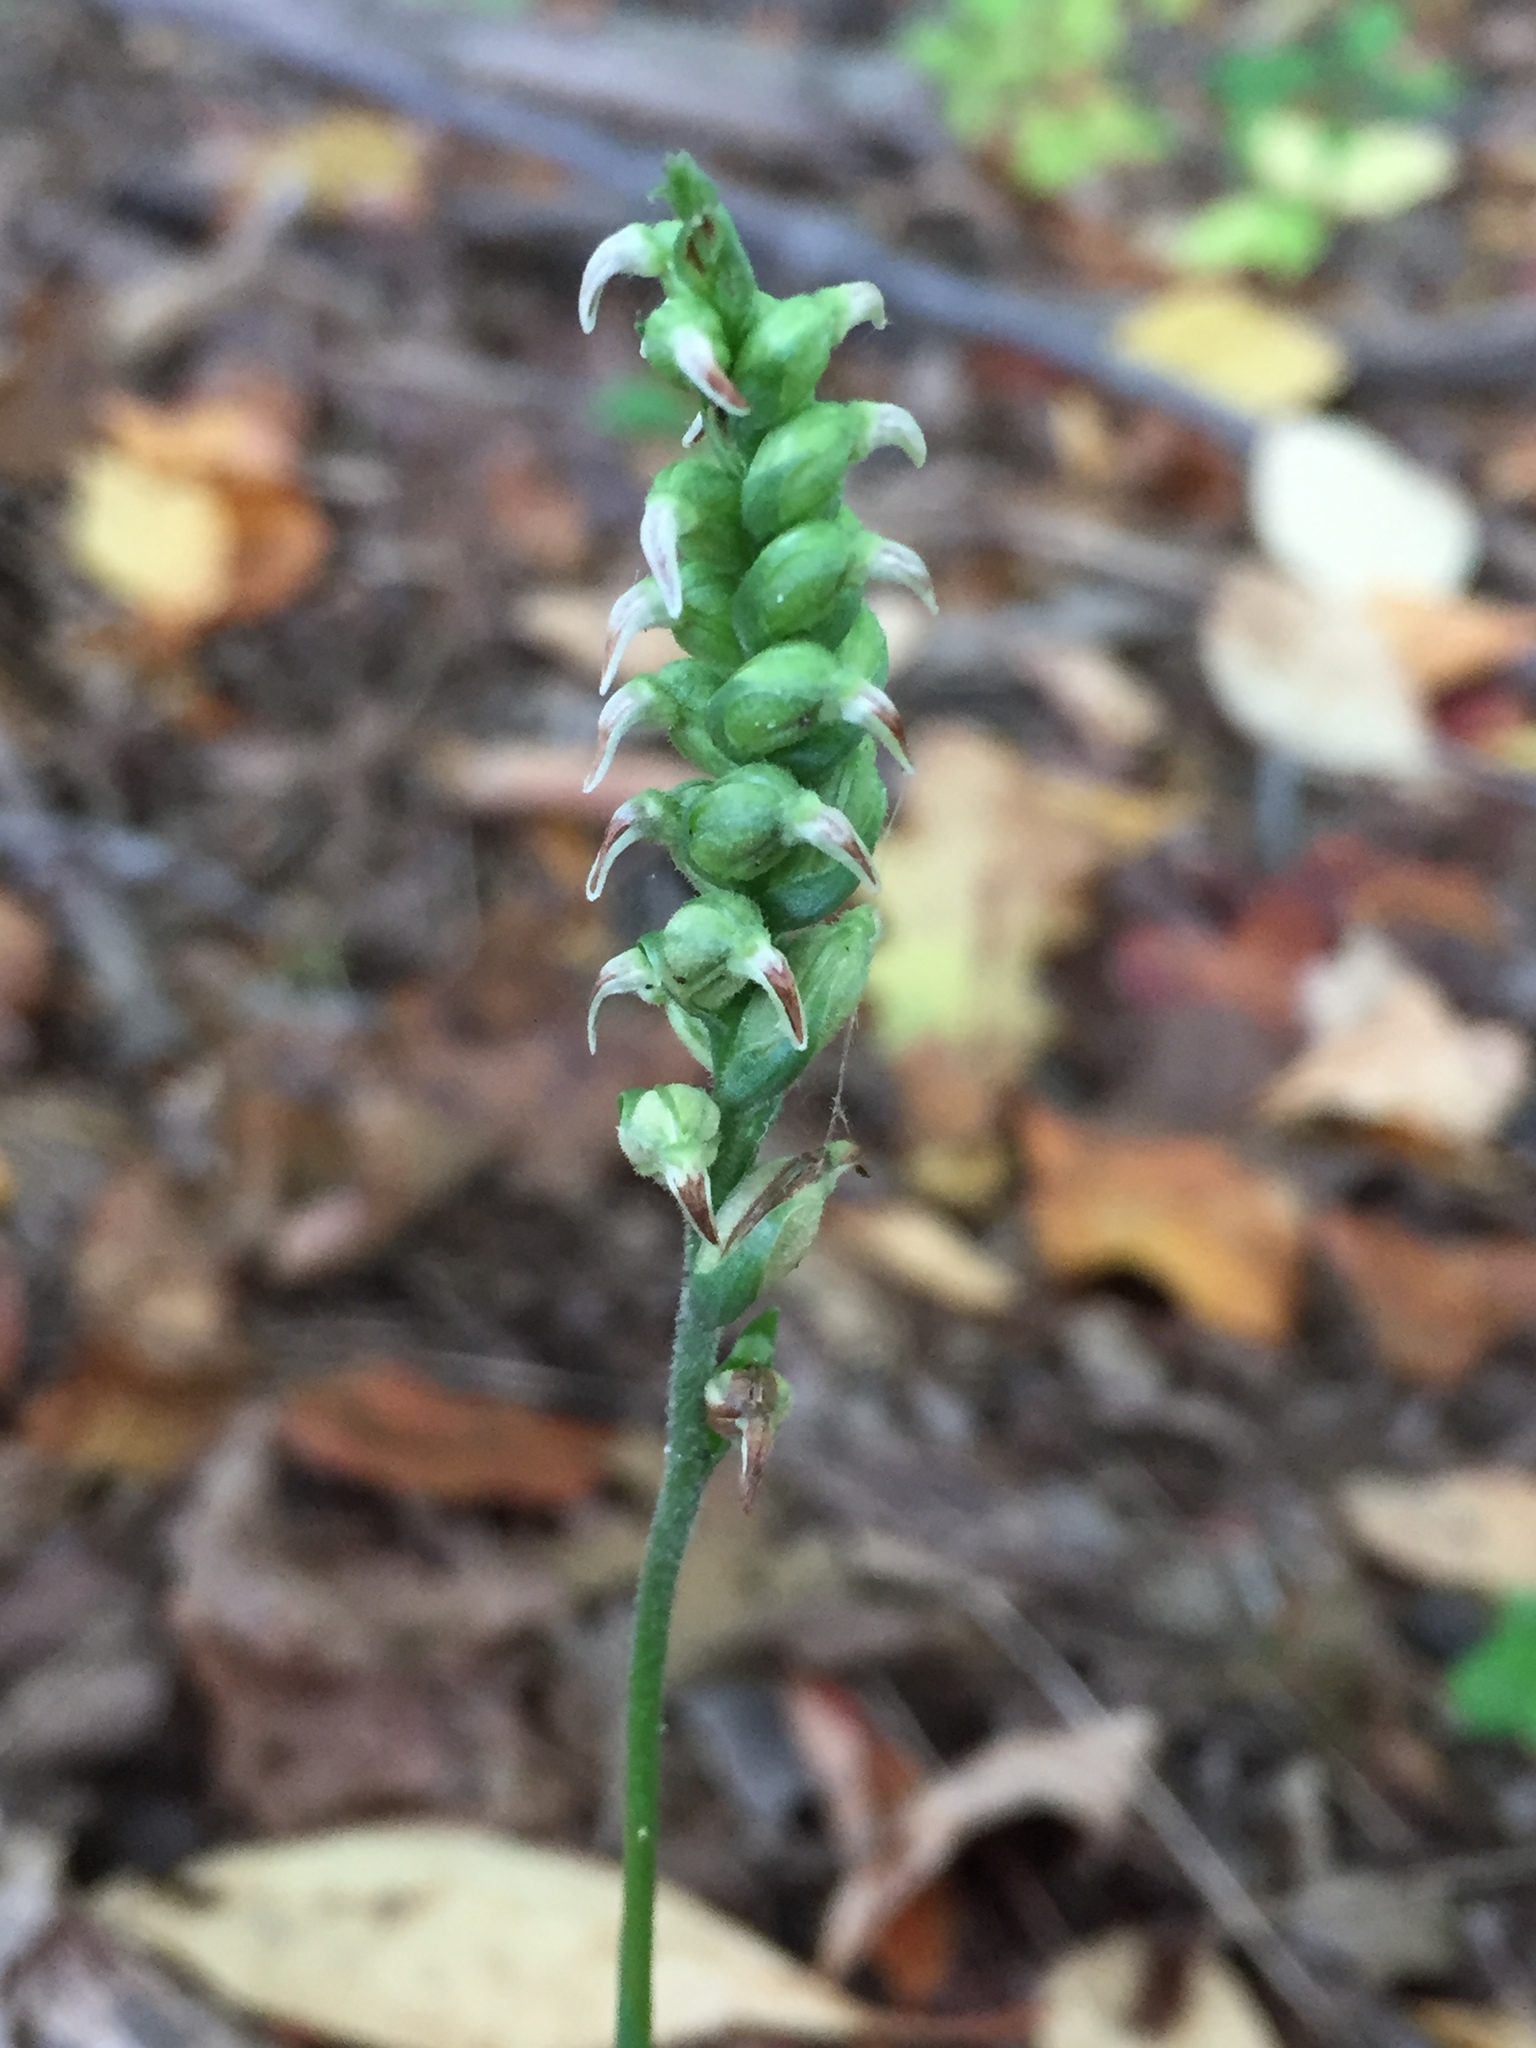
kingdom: Plantae
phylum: Tracheophyta
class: Liliopsida
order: Asparagales
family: Orchidaceae
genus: Spiranthes
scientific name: Spiranthes ovalis
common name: October ladies'-tresses
